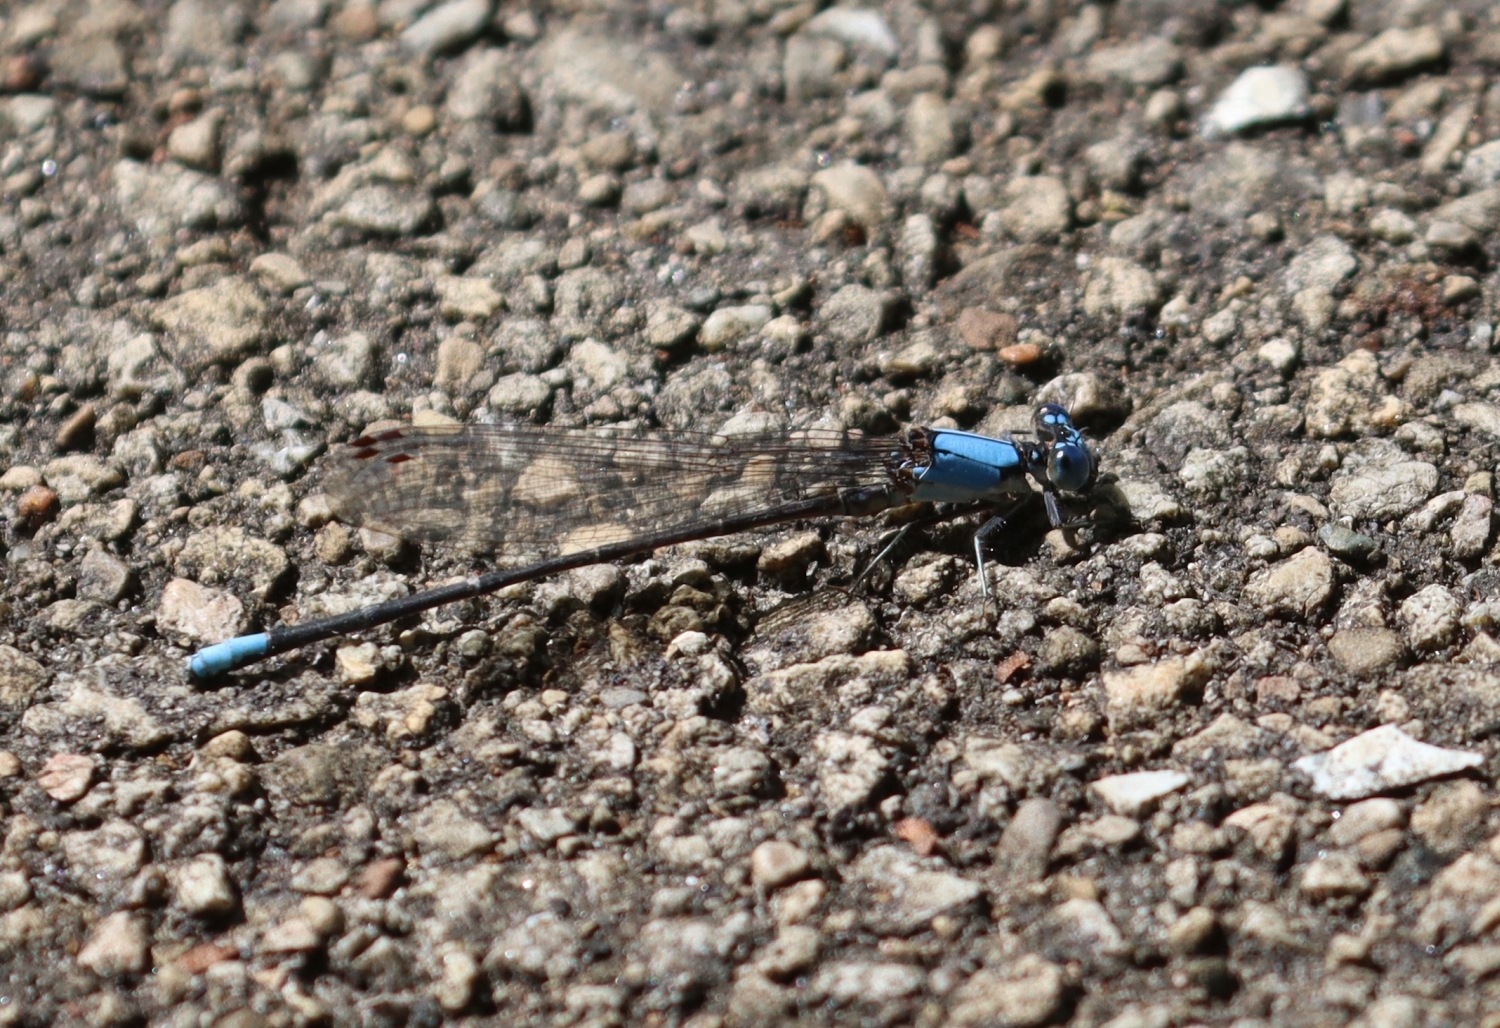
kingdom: Animalia
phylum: Arthropoda
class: Insecta
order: Odonata
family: Coenagrionidae
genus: Argia
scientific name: Argia apicalis
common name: Blue-fronted dancer
